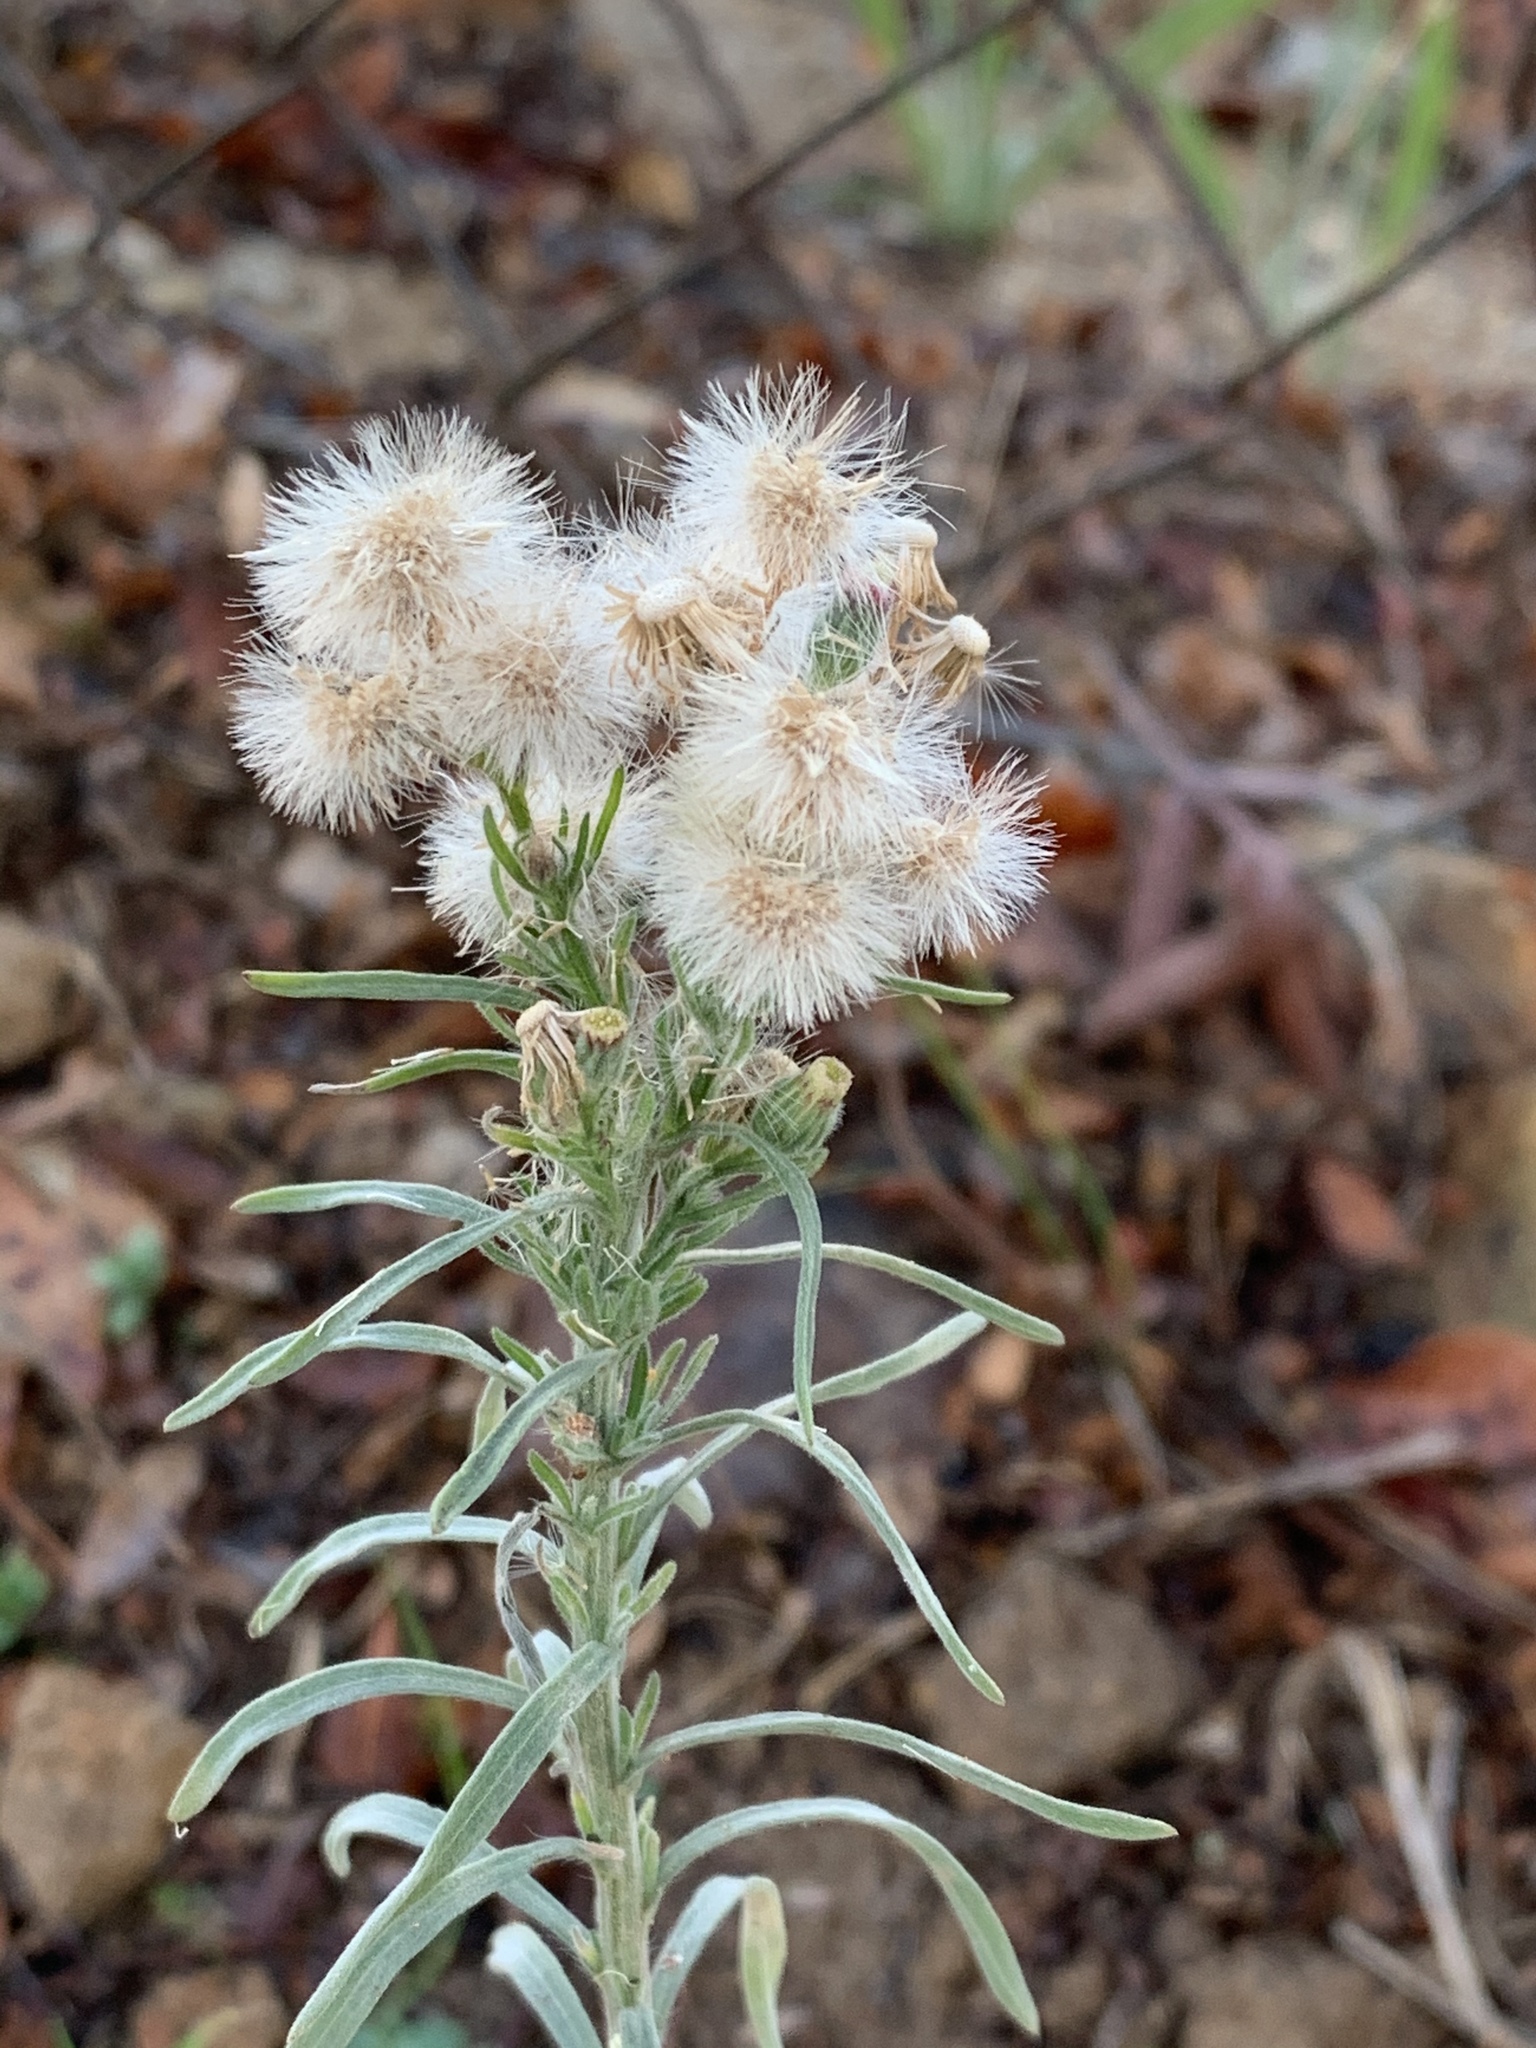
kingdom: Plantae
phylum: Tracheophyta
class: Magnoliopsida
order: Asterales
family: Asteraceae
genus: Erigeron
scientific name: Erigeron bonariensis
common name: Argentine fleabane
